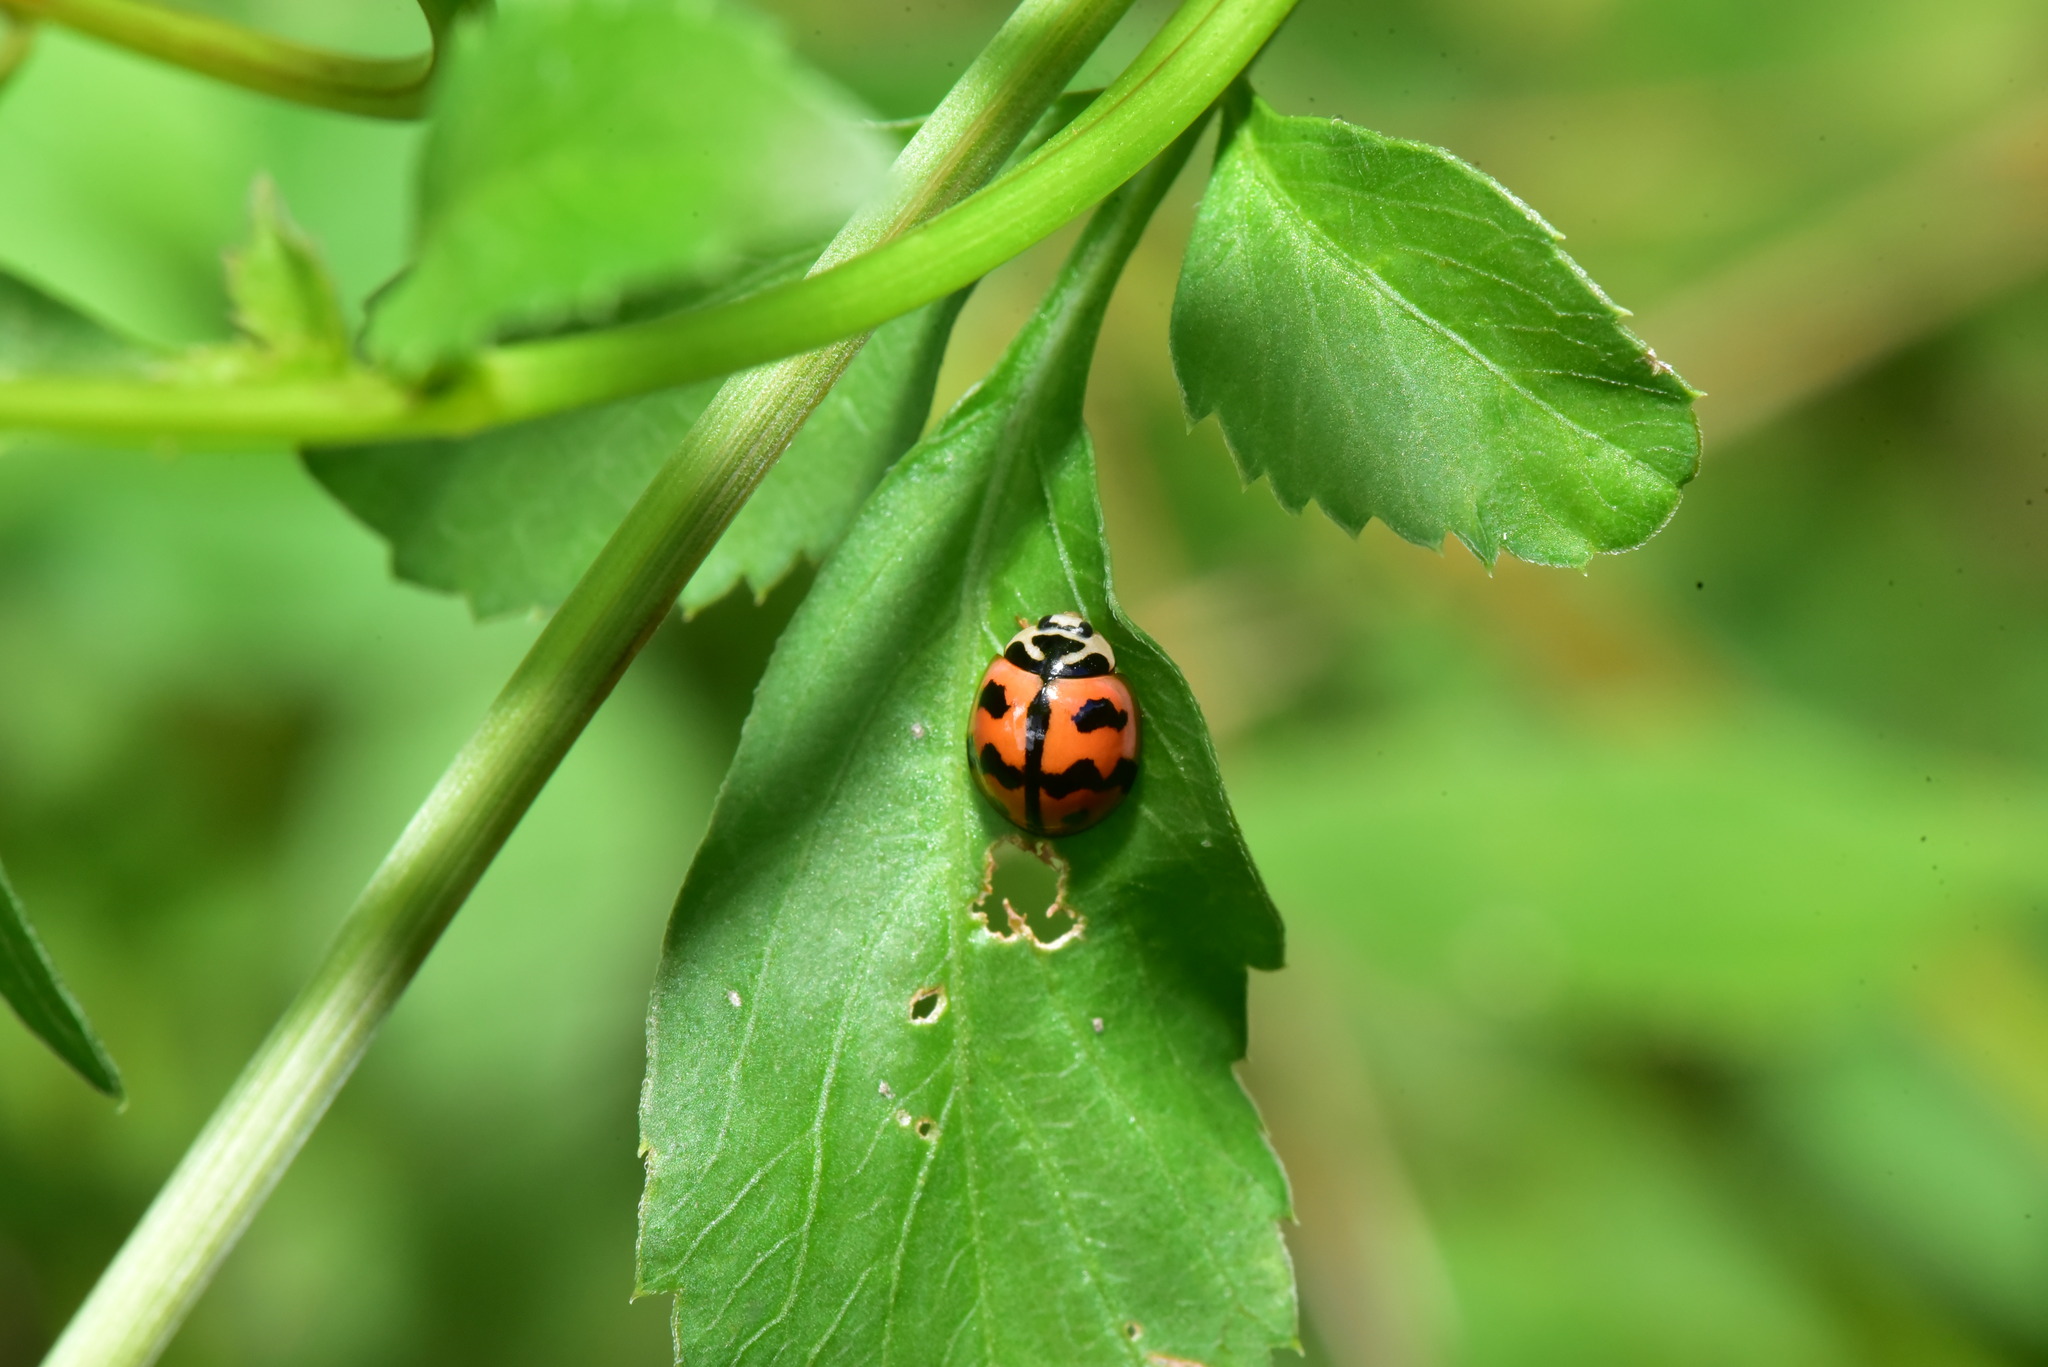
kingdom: Animalia
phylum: Arthropoda
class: Insecta
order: Coleoptera
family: Coccinellidae
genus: Cheilomenes
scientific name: Cheilomenes sexmaculata
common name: Ladybird beetle
